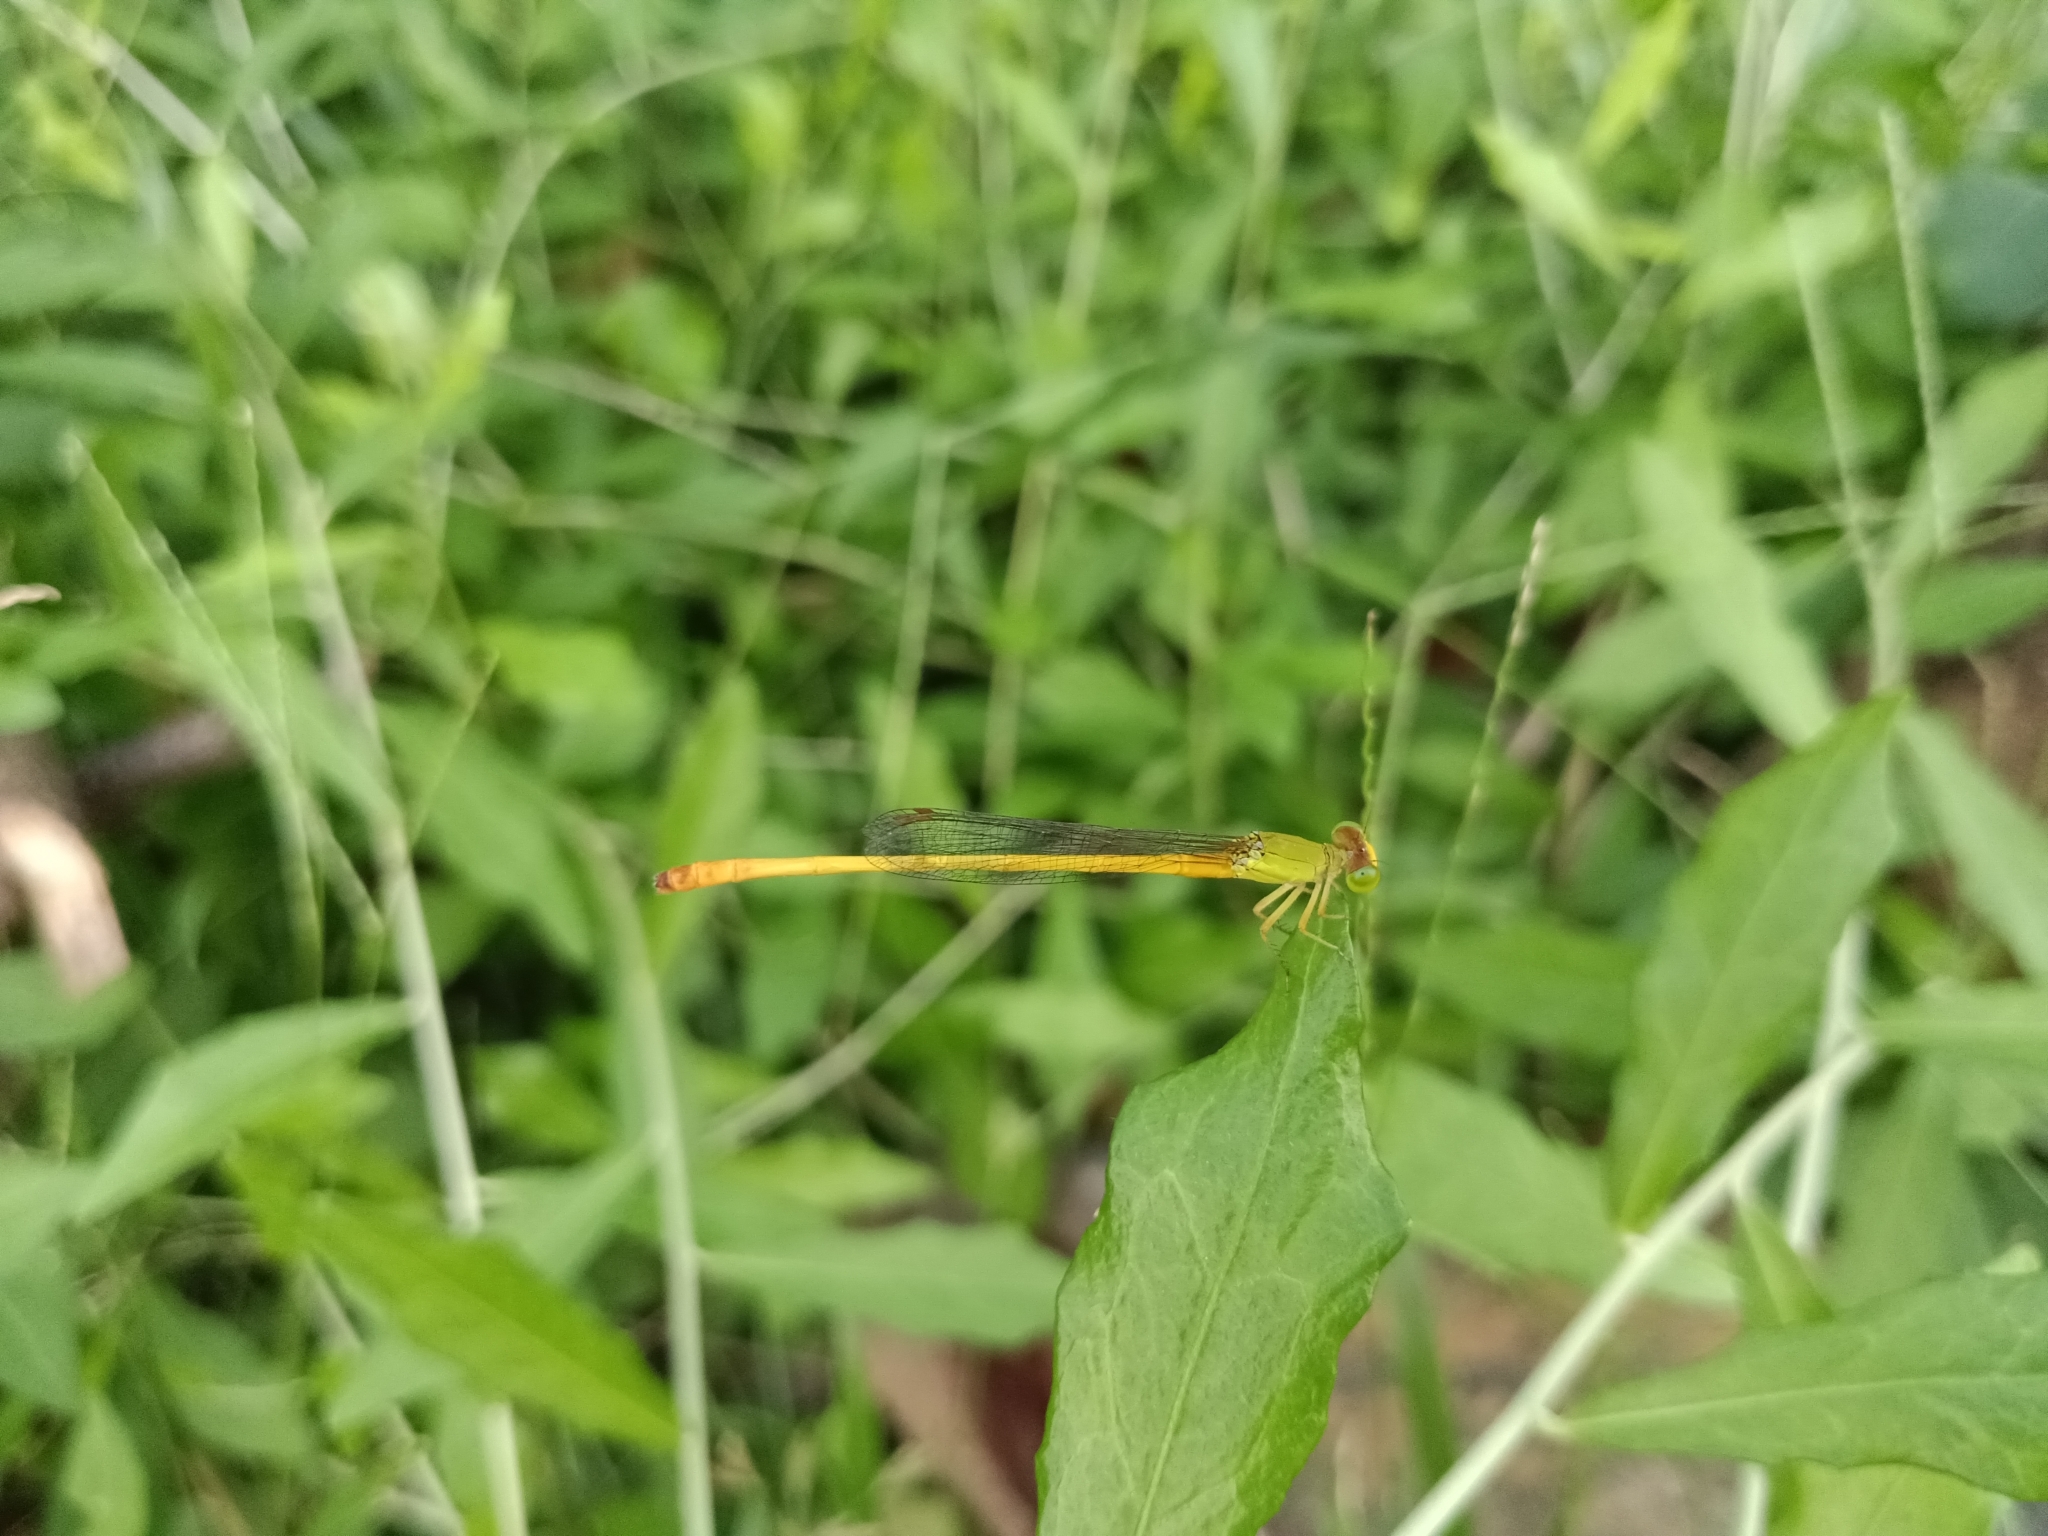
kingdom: Animalia
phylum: Arthropoda
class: Insecta
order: Odonata
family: Coenagrionidae
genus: Ceriagrion
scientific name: Ceriagrion coromandelianum
